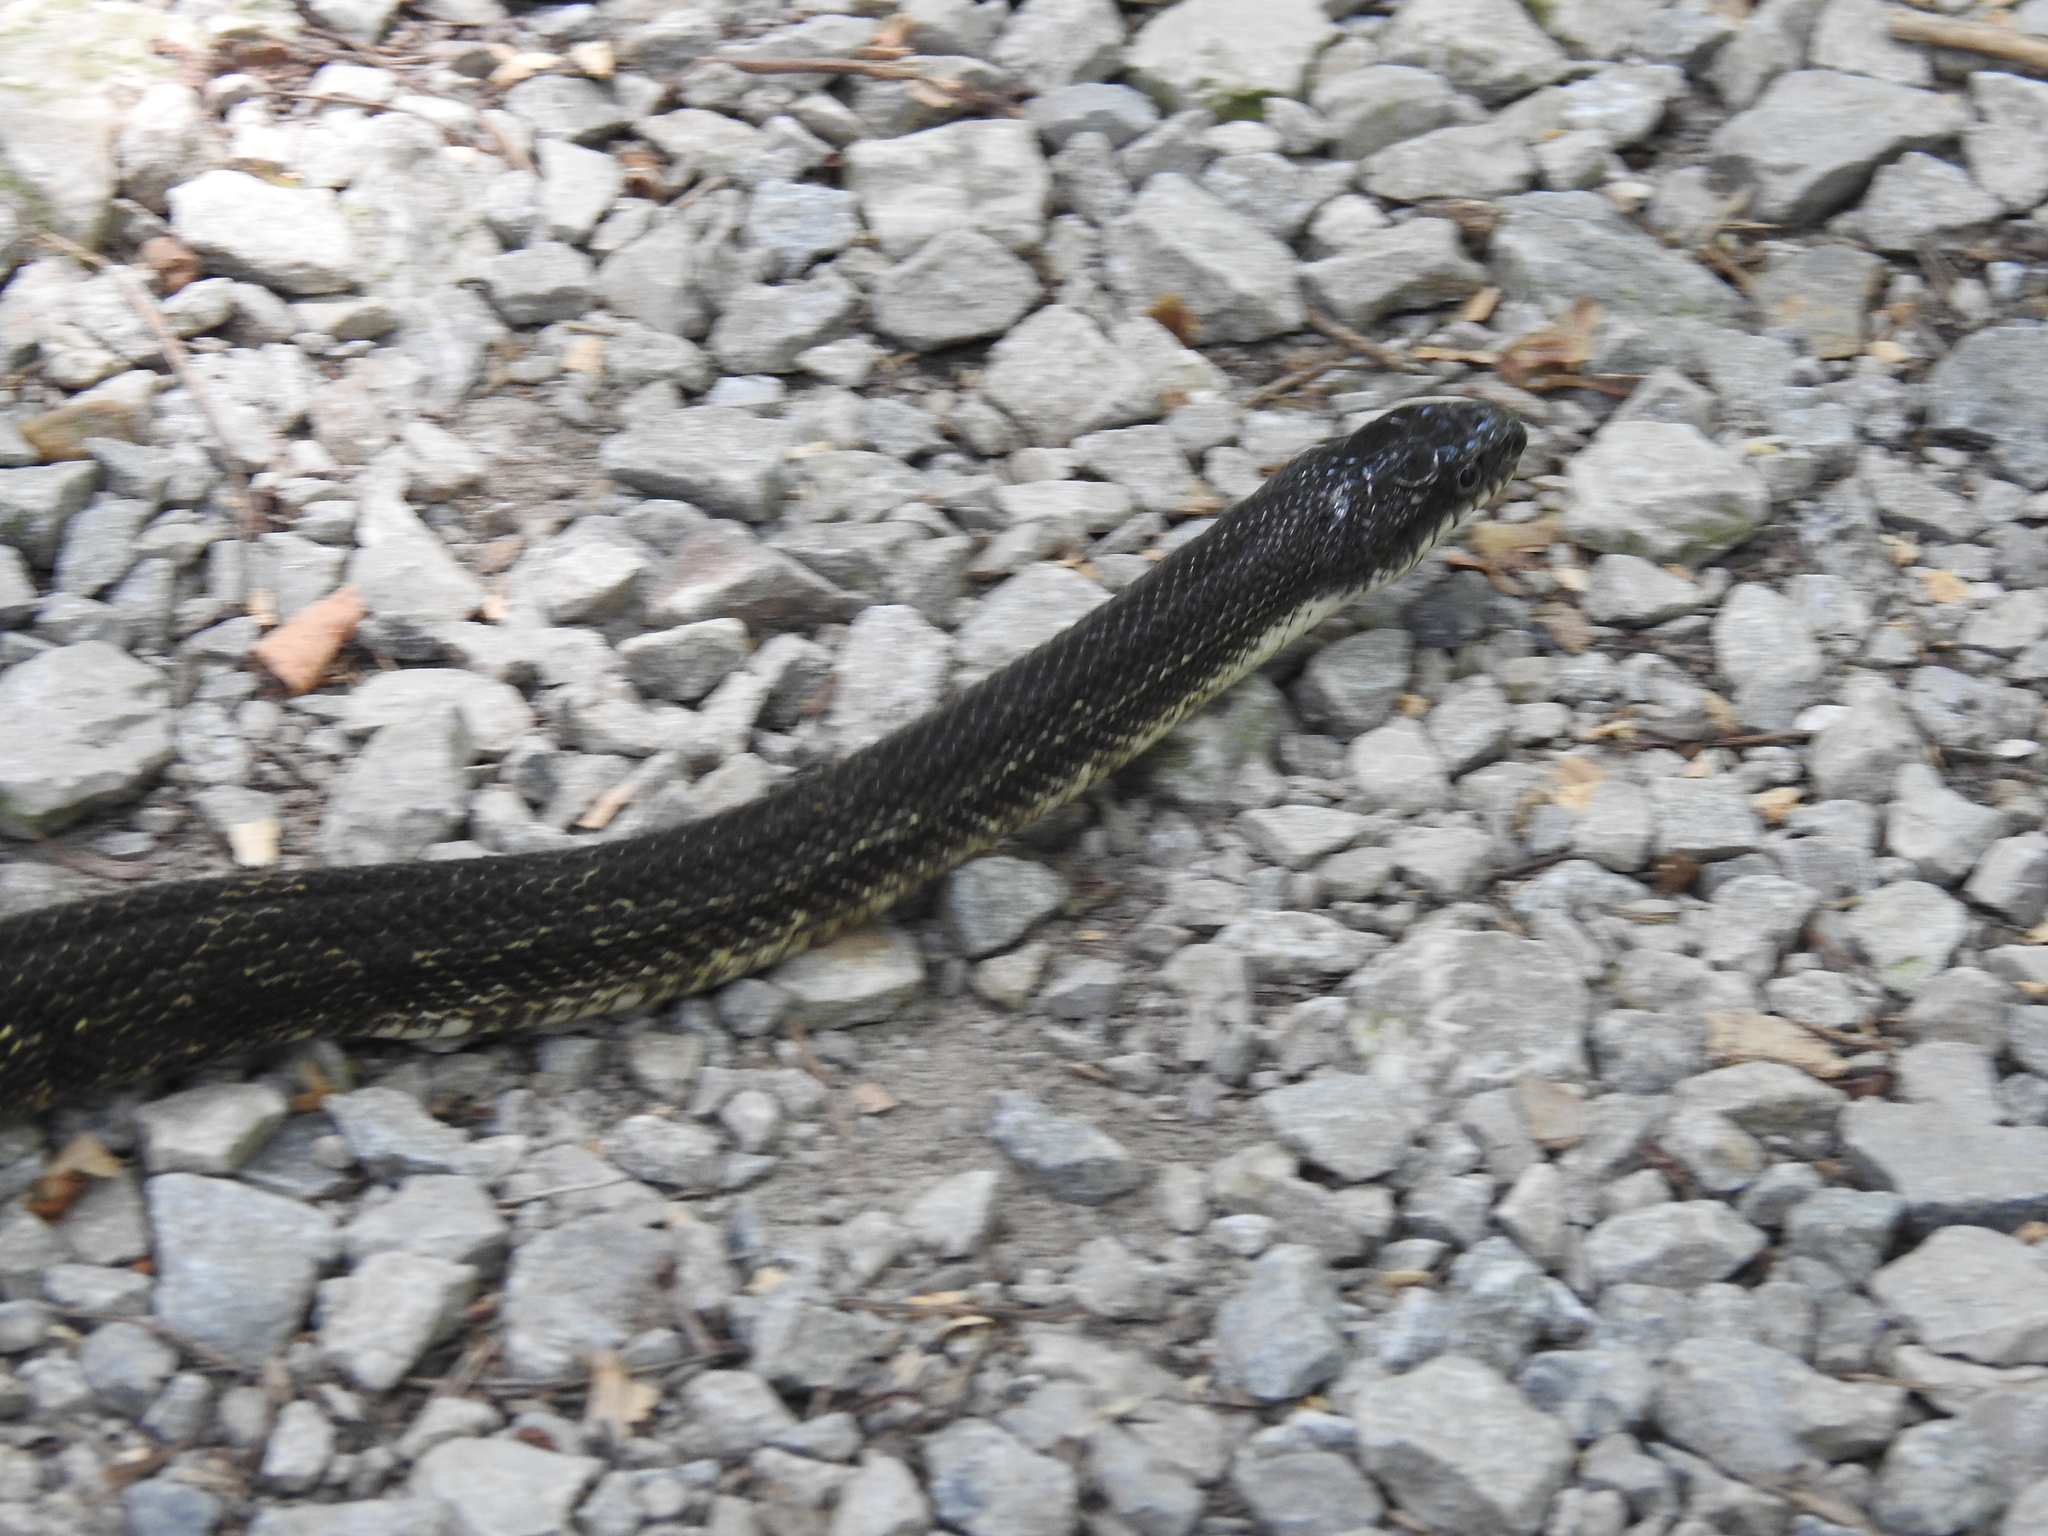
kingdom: Animalia
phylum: Chordata
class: Squamata
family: Colubridae
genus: Pantherophis
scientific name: Pantherophis spiloides
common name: Gray rat snake
